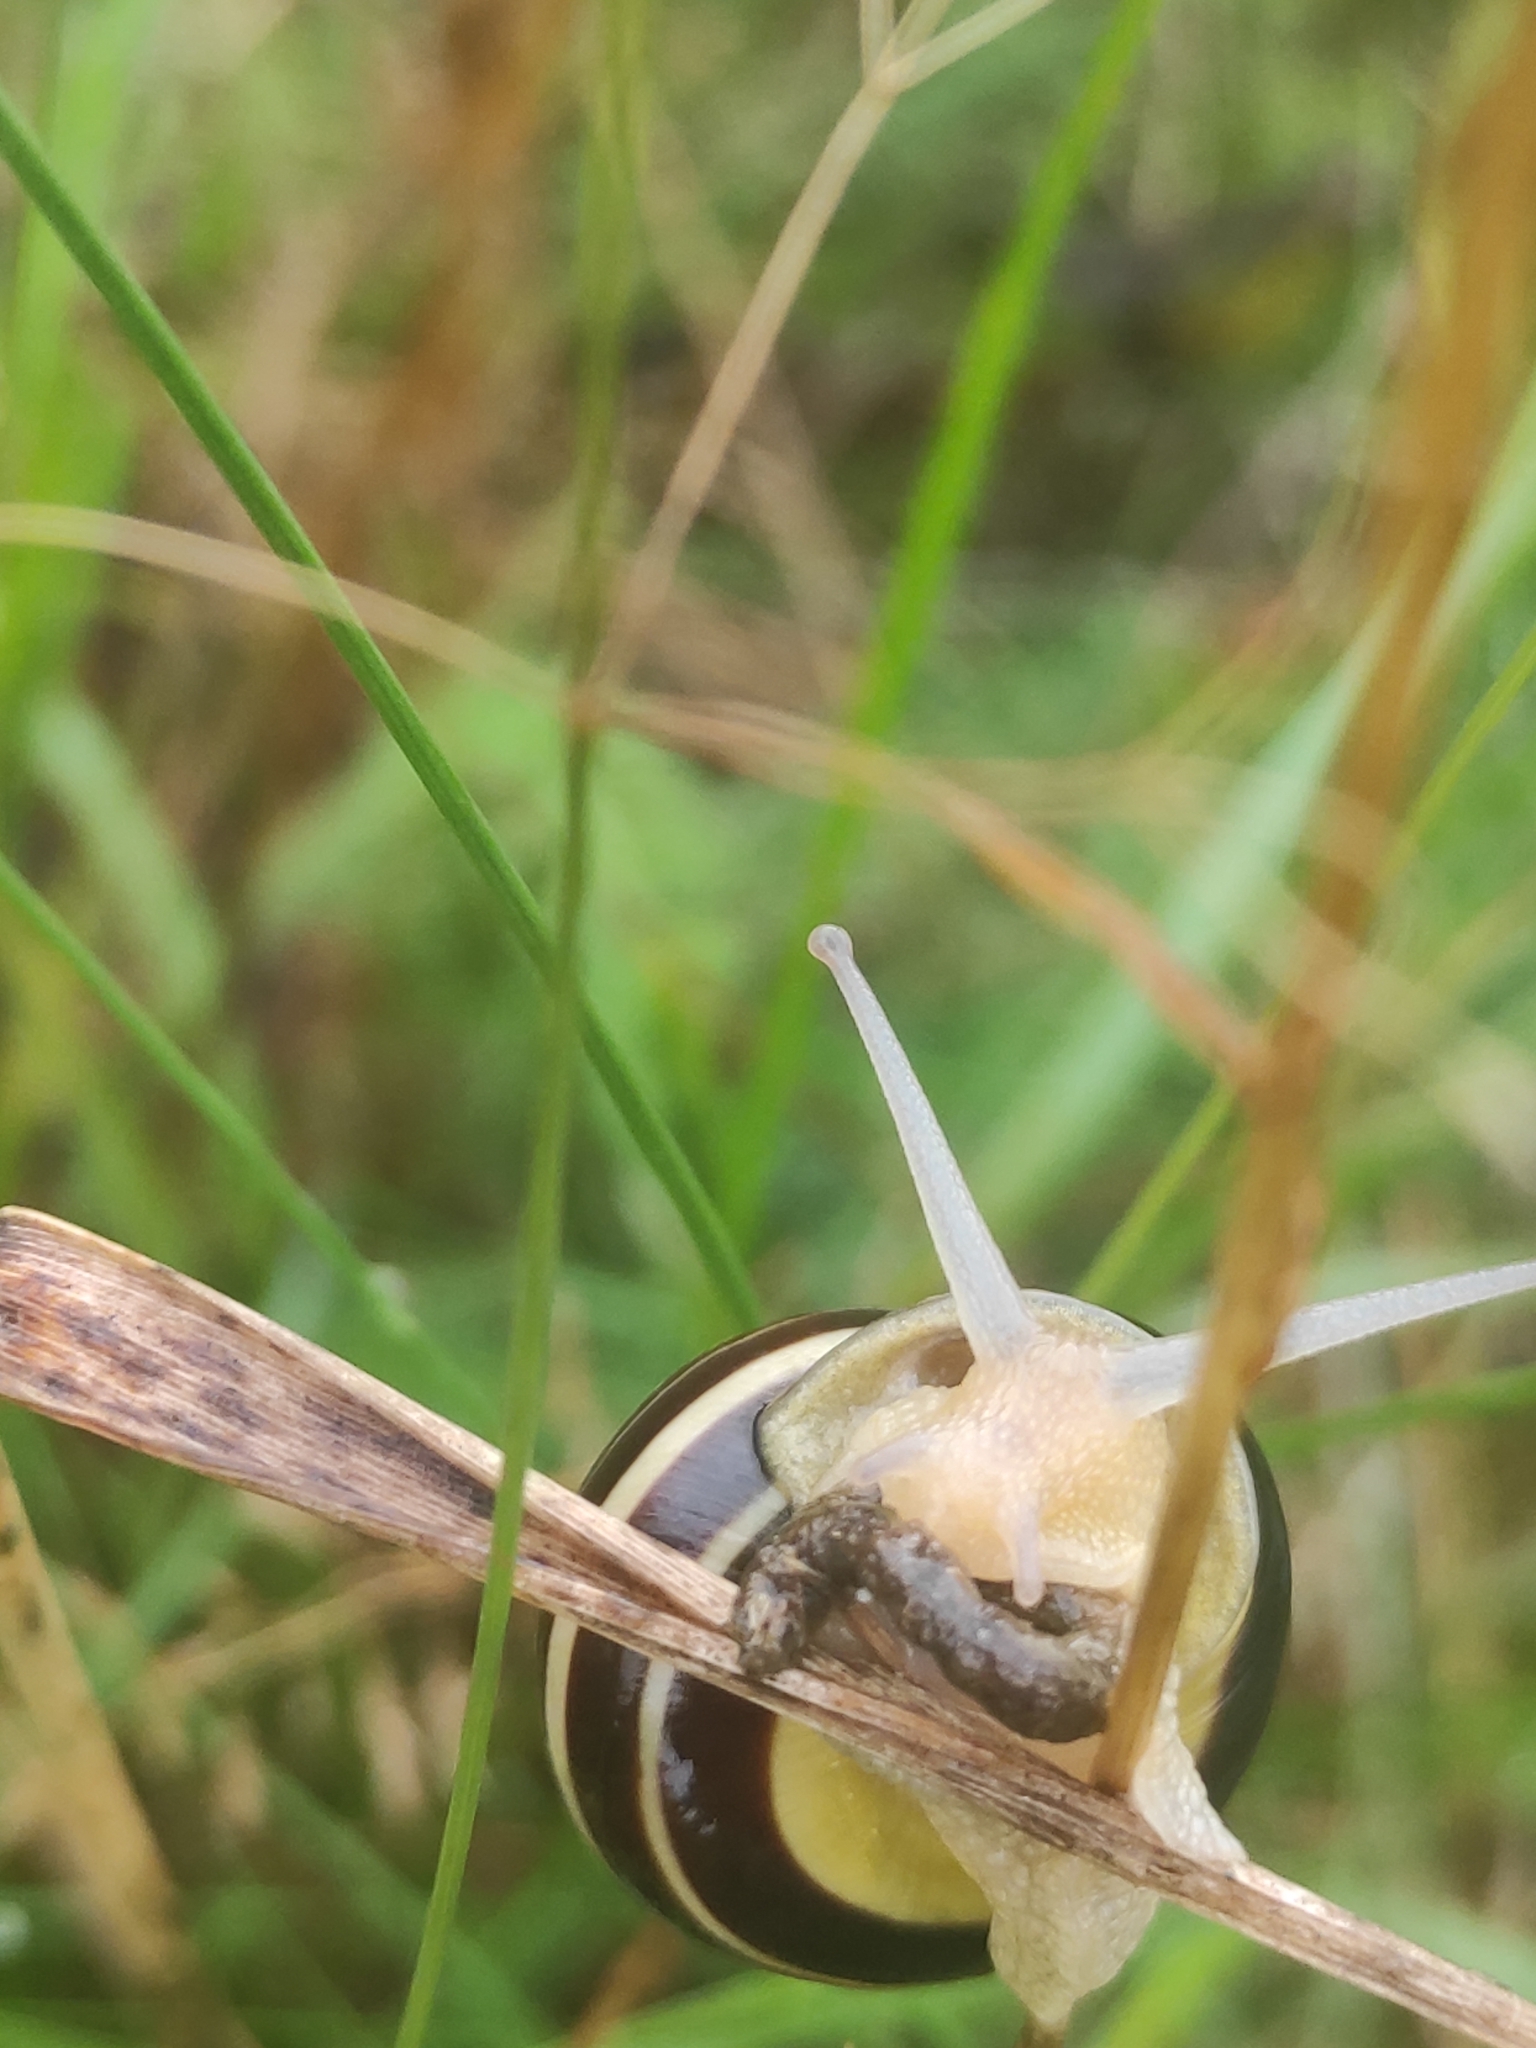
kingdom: Animalia
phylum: Mollusca
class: Gastropoda
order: Stylommatophora
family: Helicidae
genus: Cepaea
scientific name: Cepaea nemoralis
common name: Grovesnail
